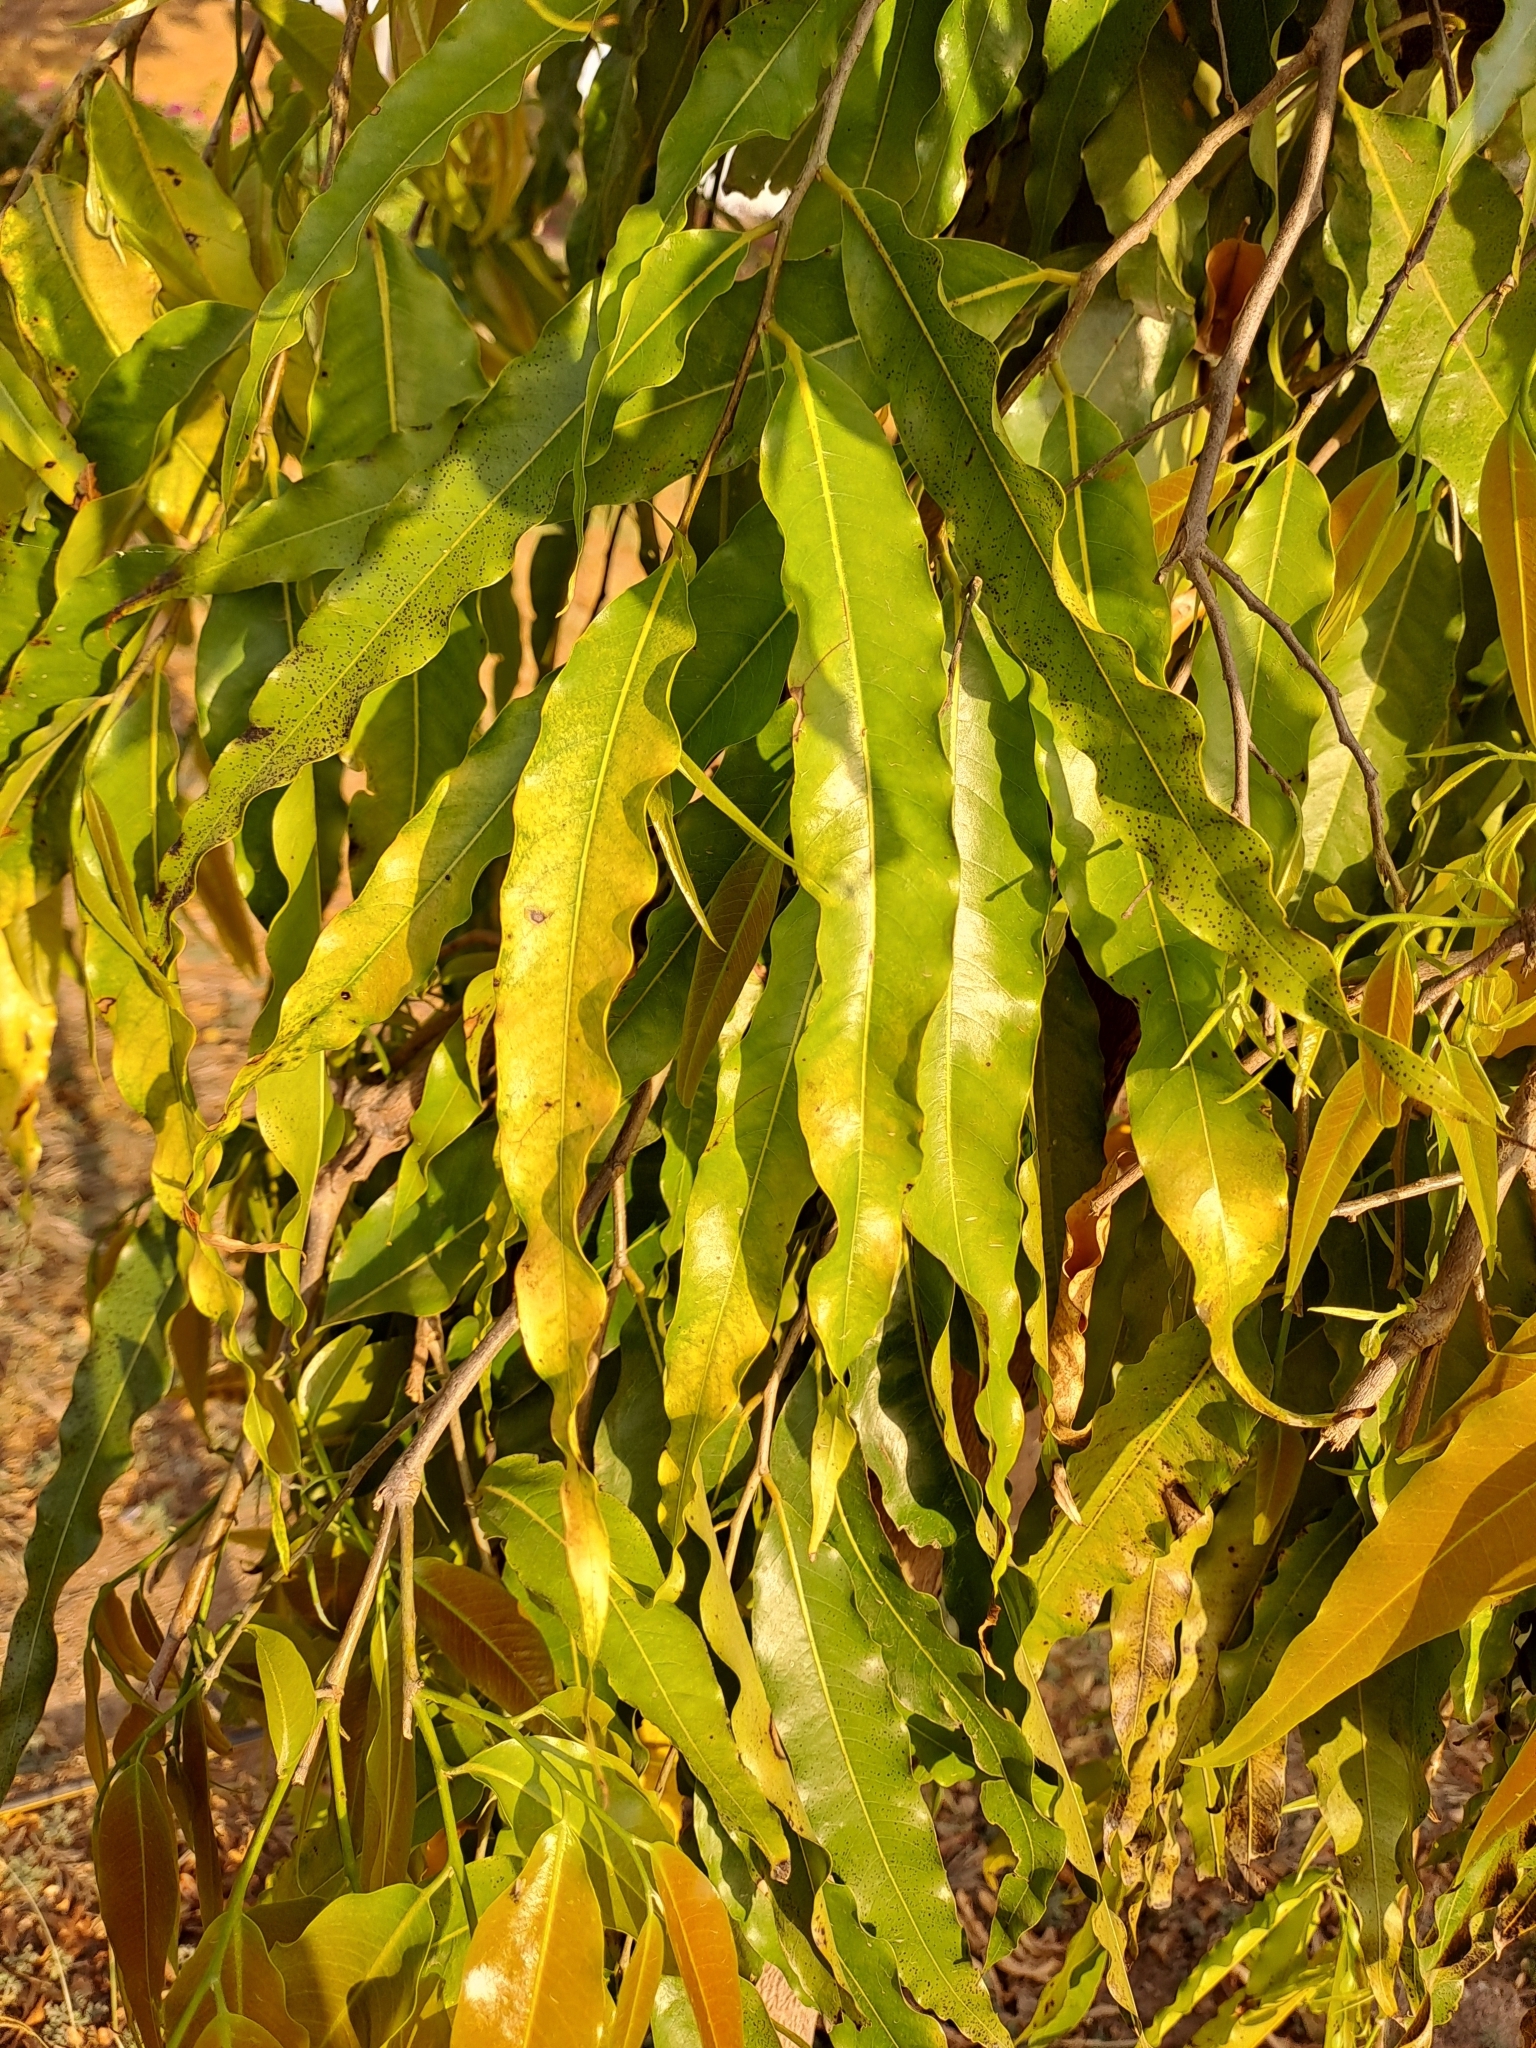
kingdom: Plantae
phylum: Tracheophyta
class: Magnoliopsida
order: Magnoliales
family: Annonaceae
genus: Polyalthia
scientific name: Polyalthia longifolia
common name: Cemetery-tree
